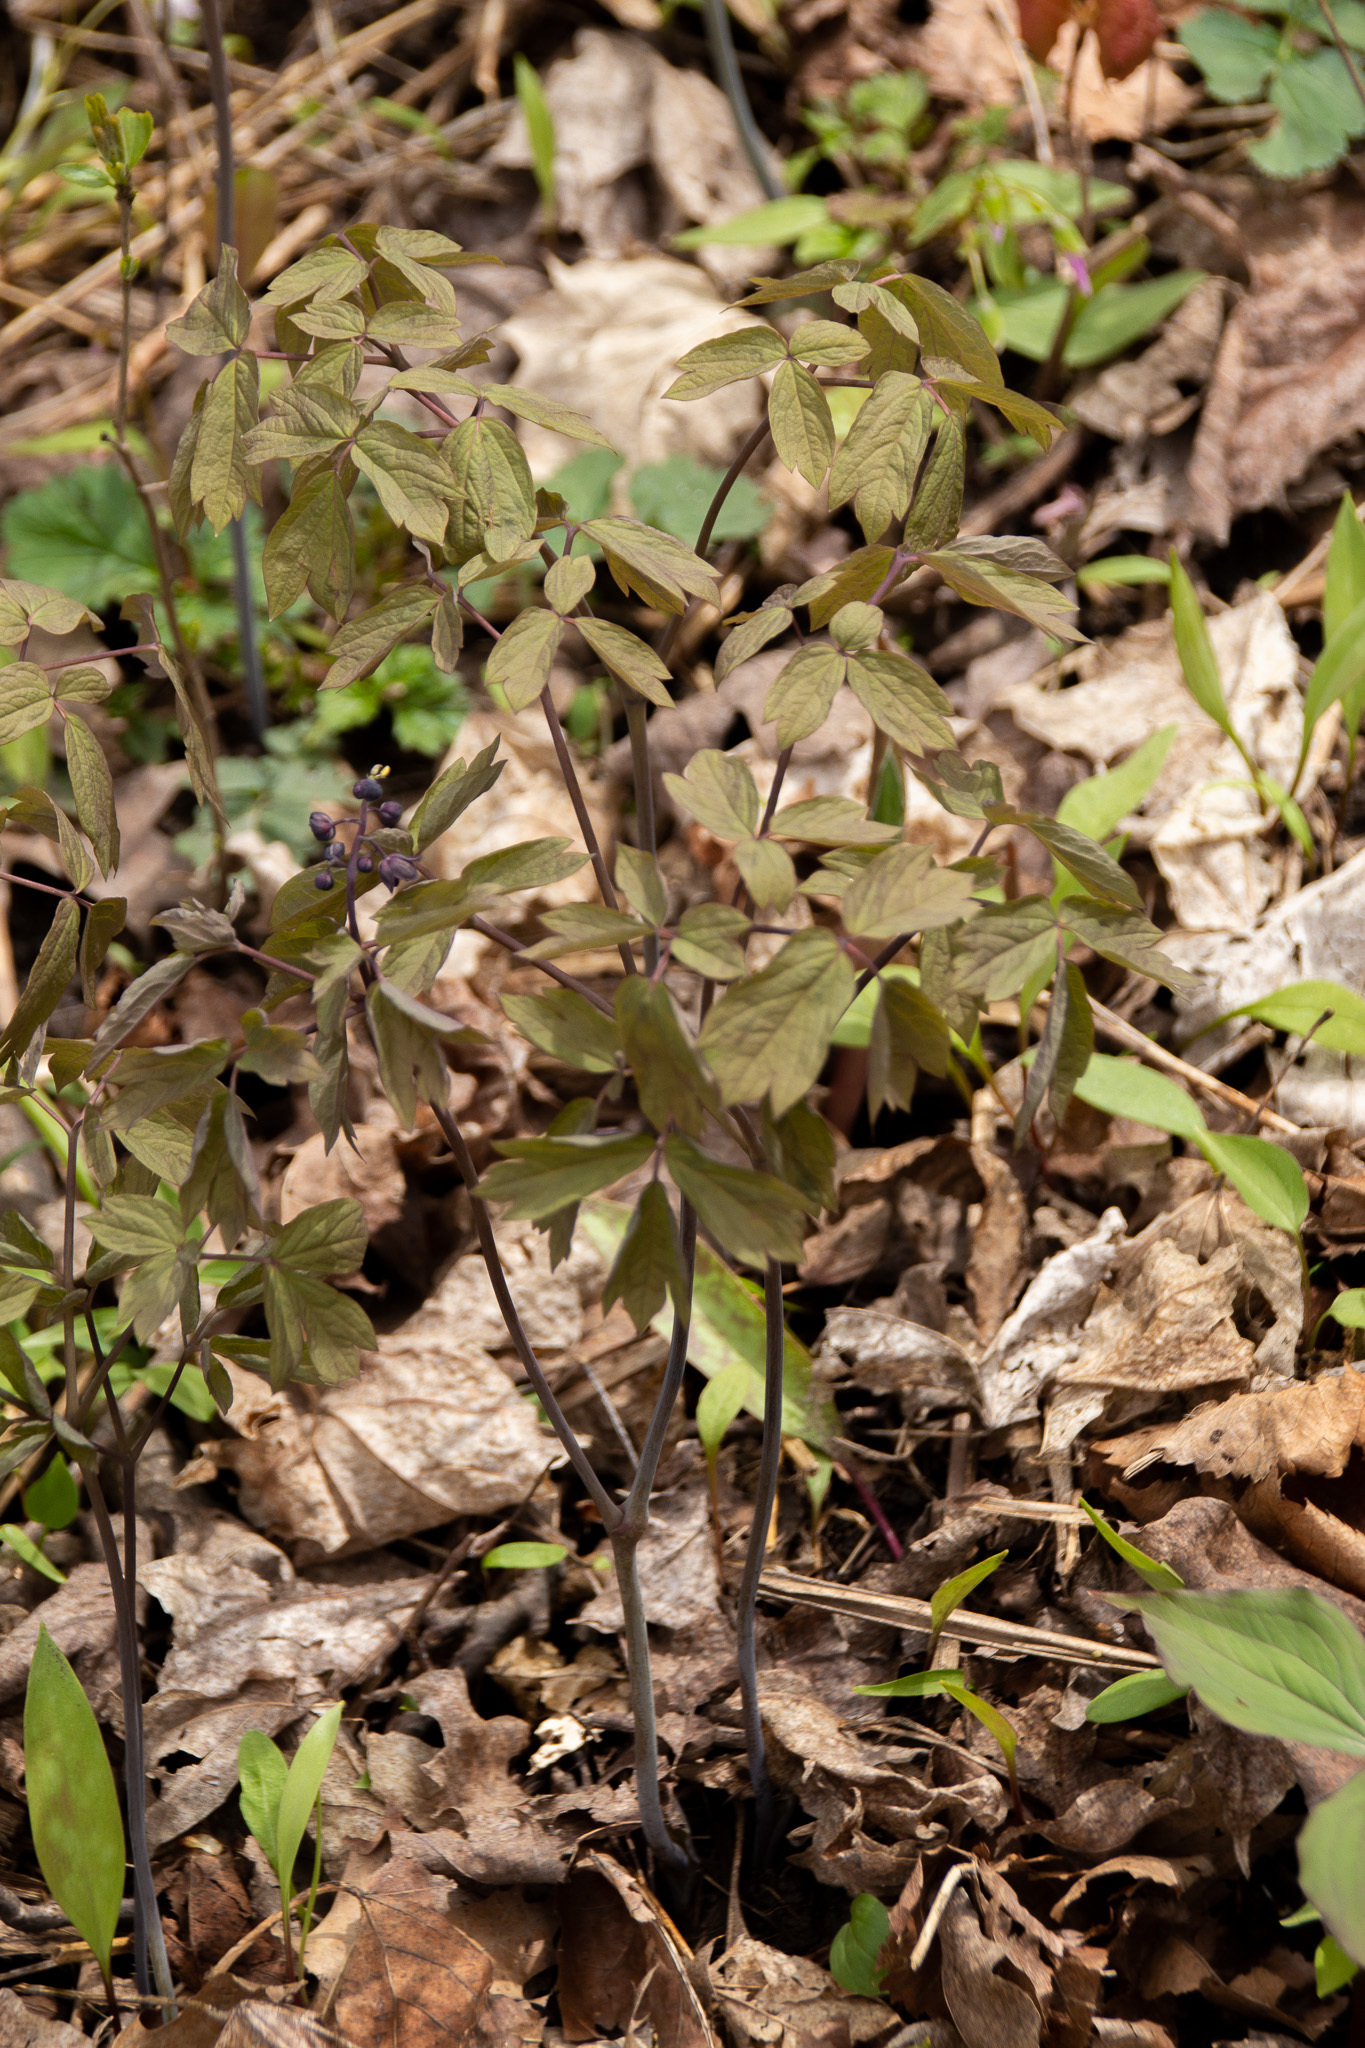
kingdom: Plantae
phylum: Tracheophyta
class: Magnoliopsida
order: Ranunculales
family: Berberidaceae
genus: Caulophyllum
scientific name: Caulophyllum giganteum
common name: Blue cohosh
